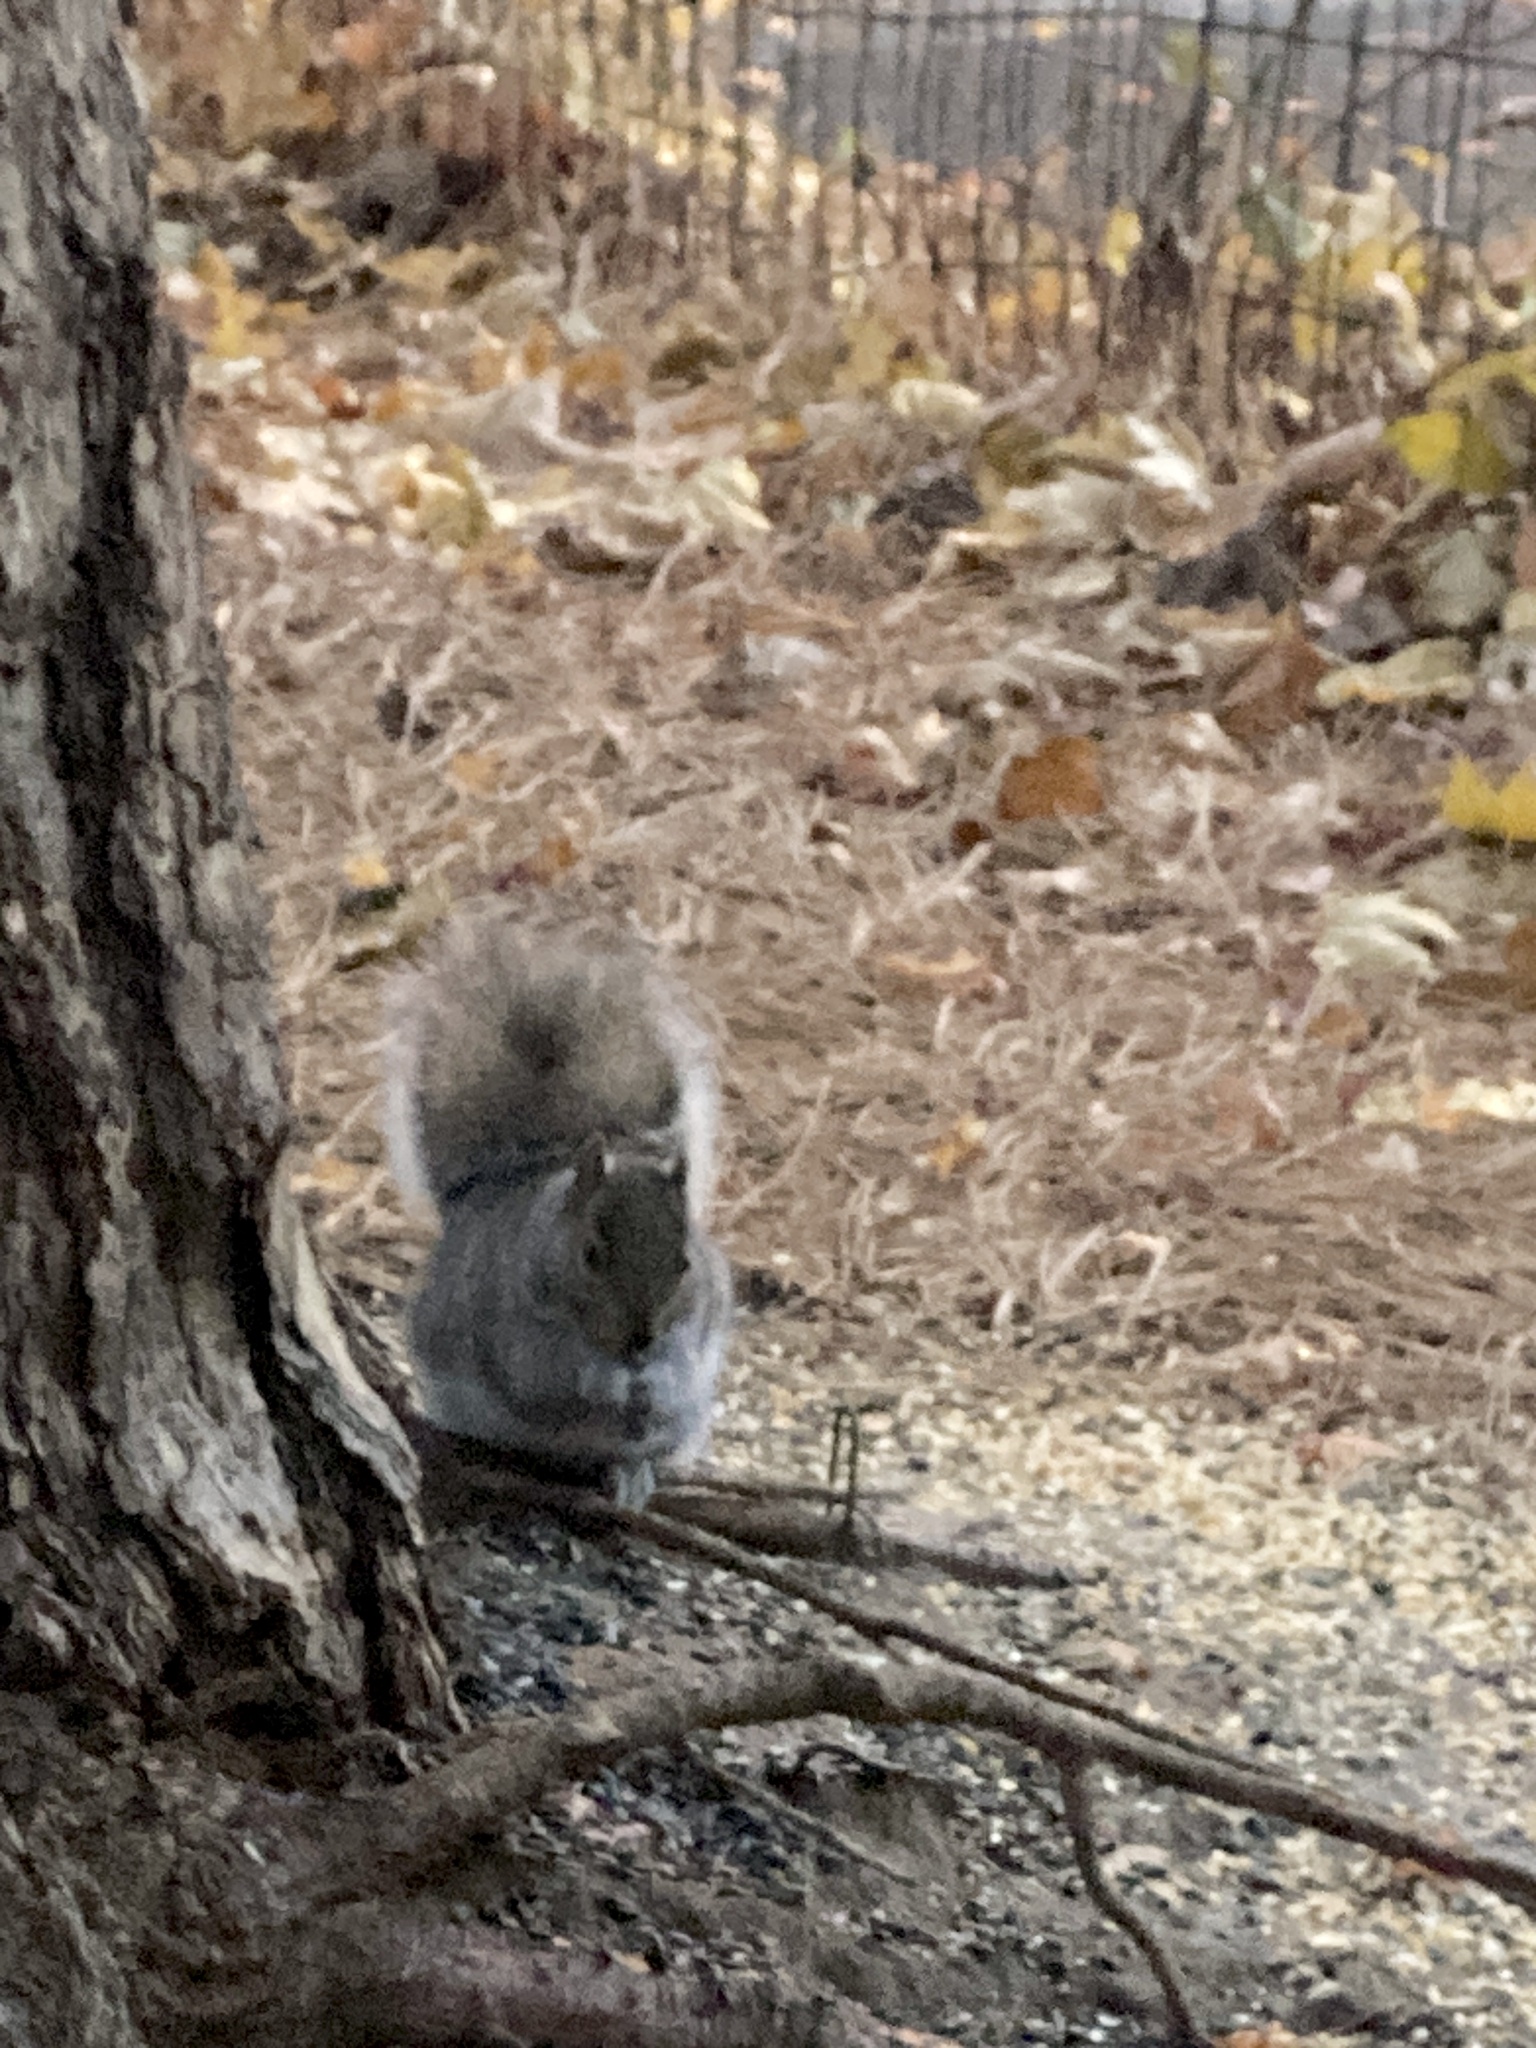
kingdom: Animalia
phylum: Chordata
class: Mammalia
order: Rodentia
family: Sciuridae
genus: Sciurus
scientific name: Sciurus carolinensis
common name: Eastern gray squirrel
